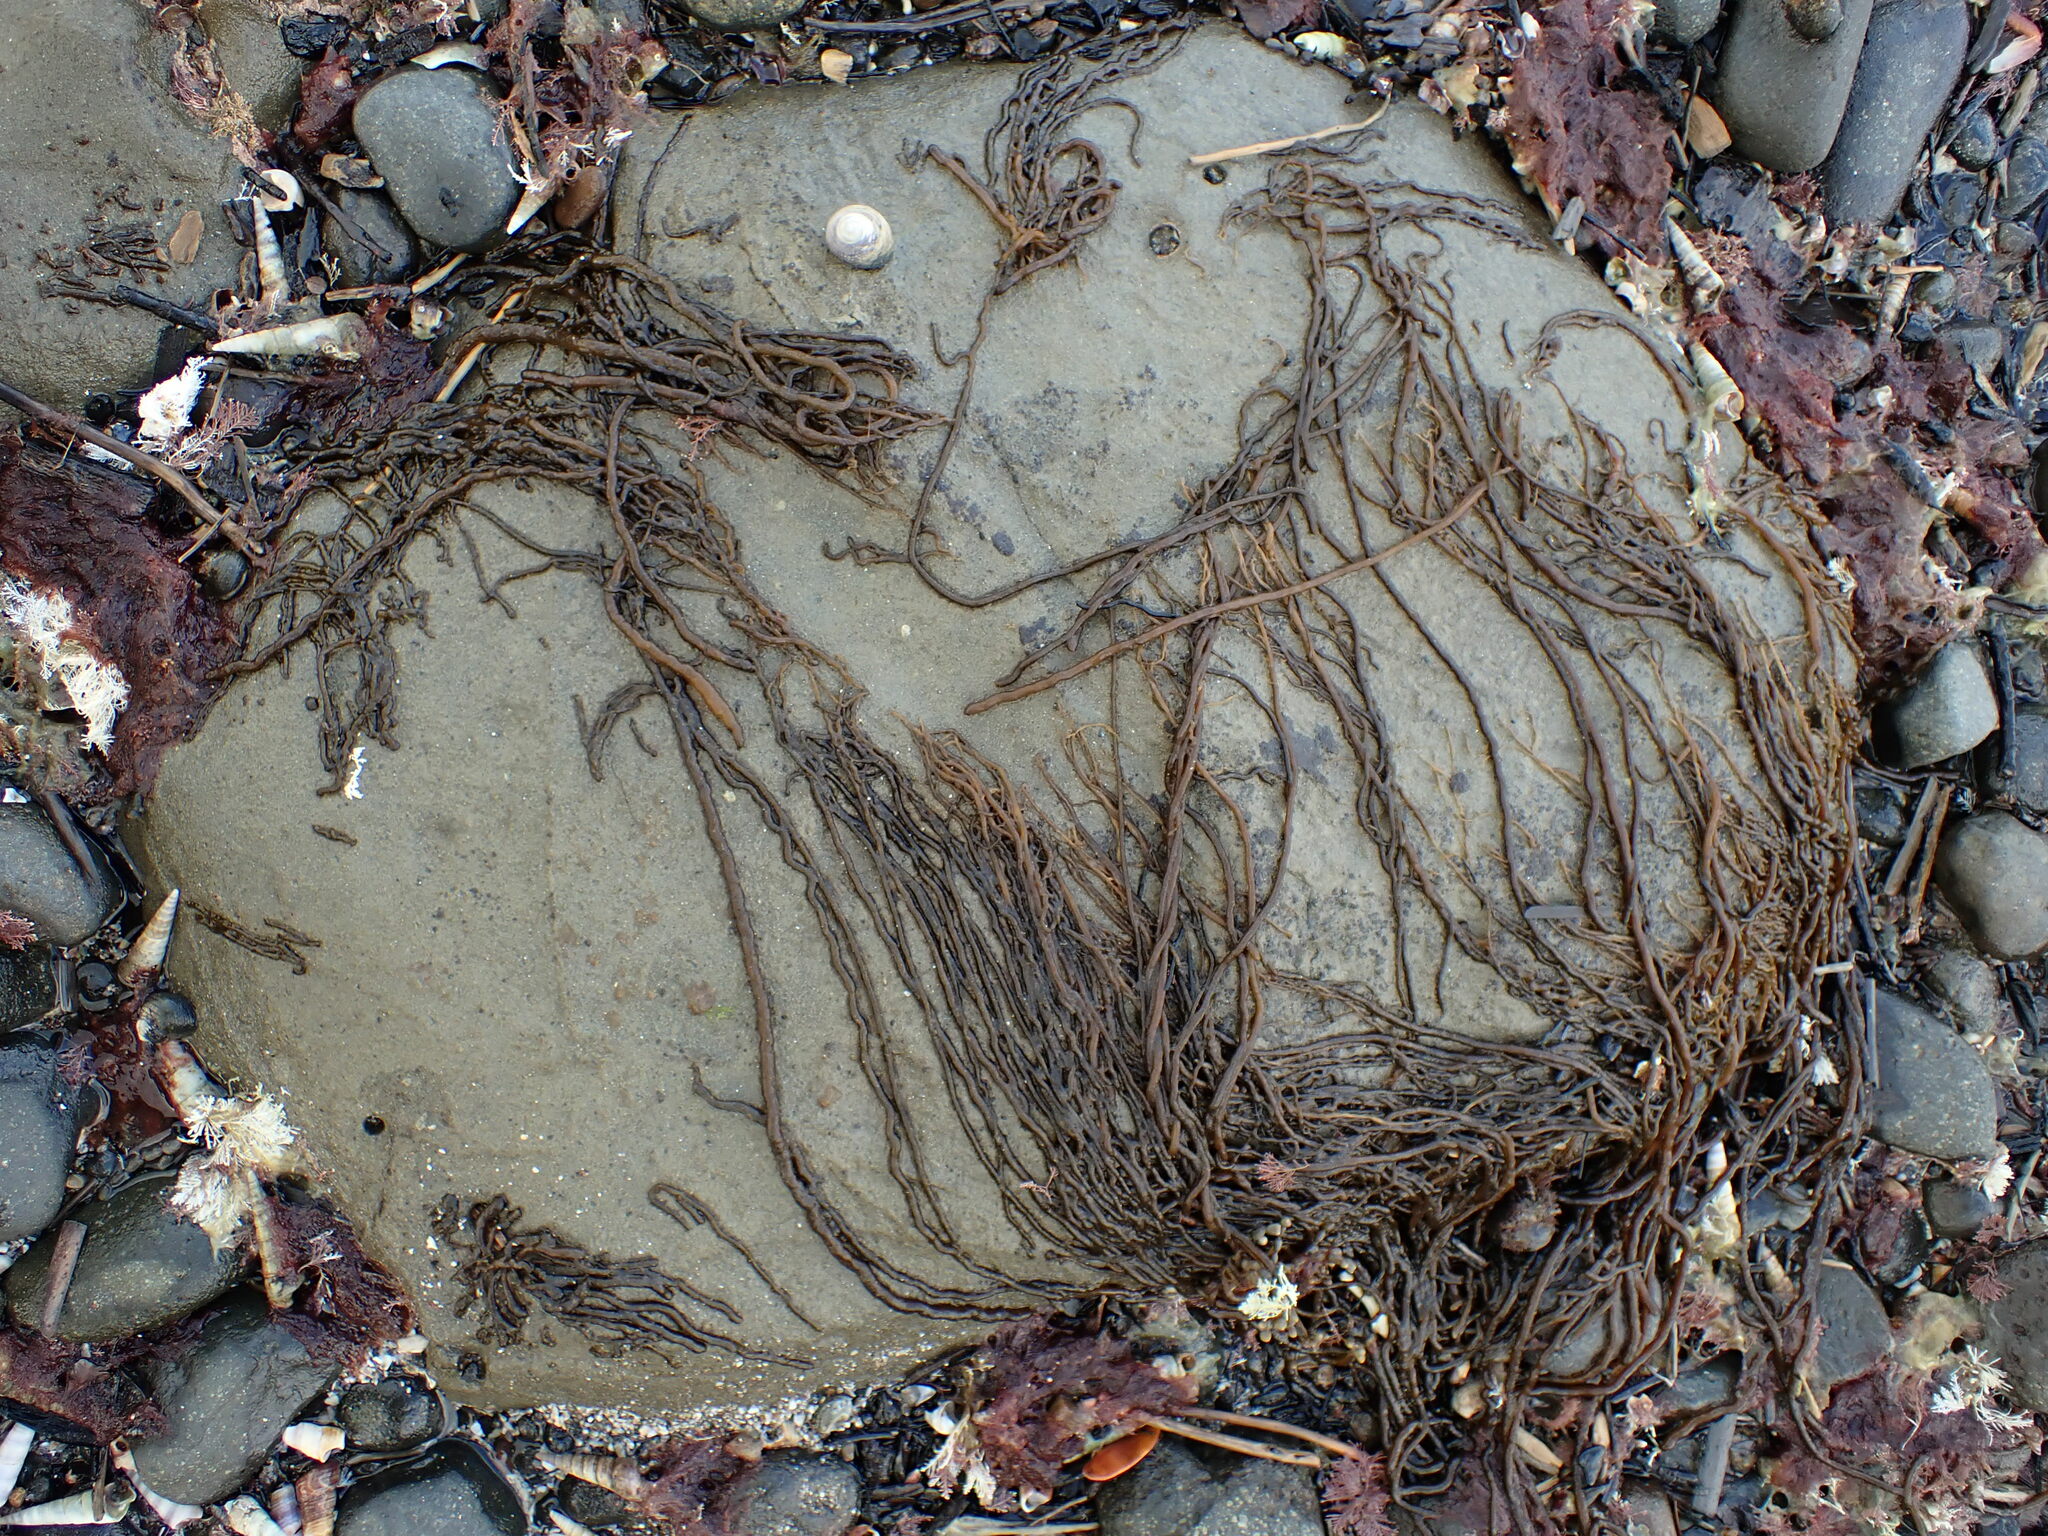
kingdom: Chromista
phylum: Ochrophyta
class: Phaeophyceae
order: Ectocarpales
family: Chordariaceae
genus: Myriogloea
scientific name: Myriogloea intestinalis
